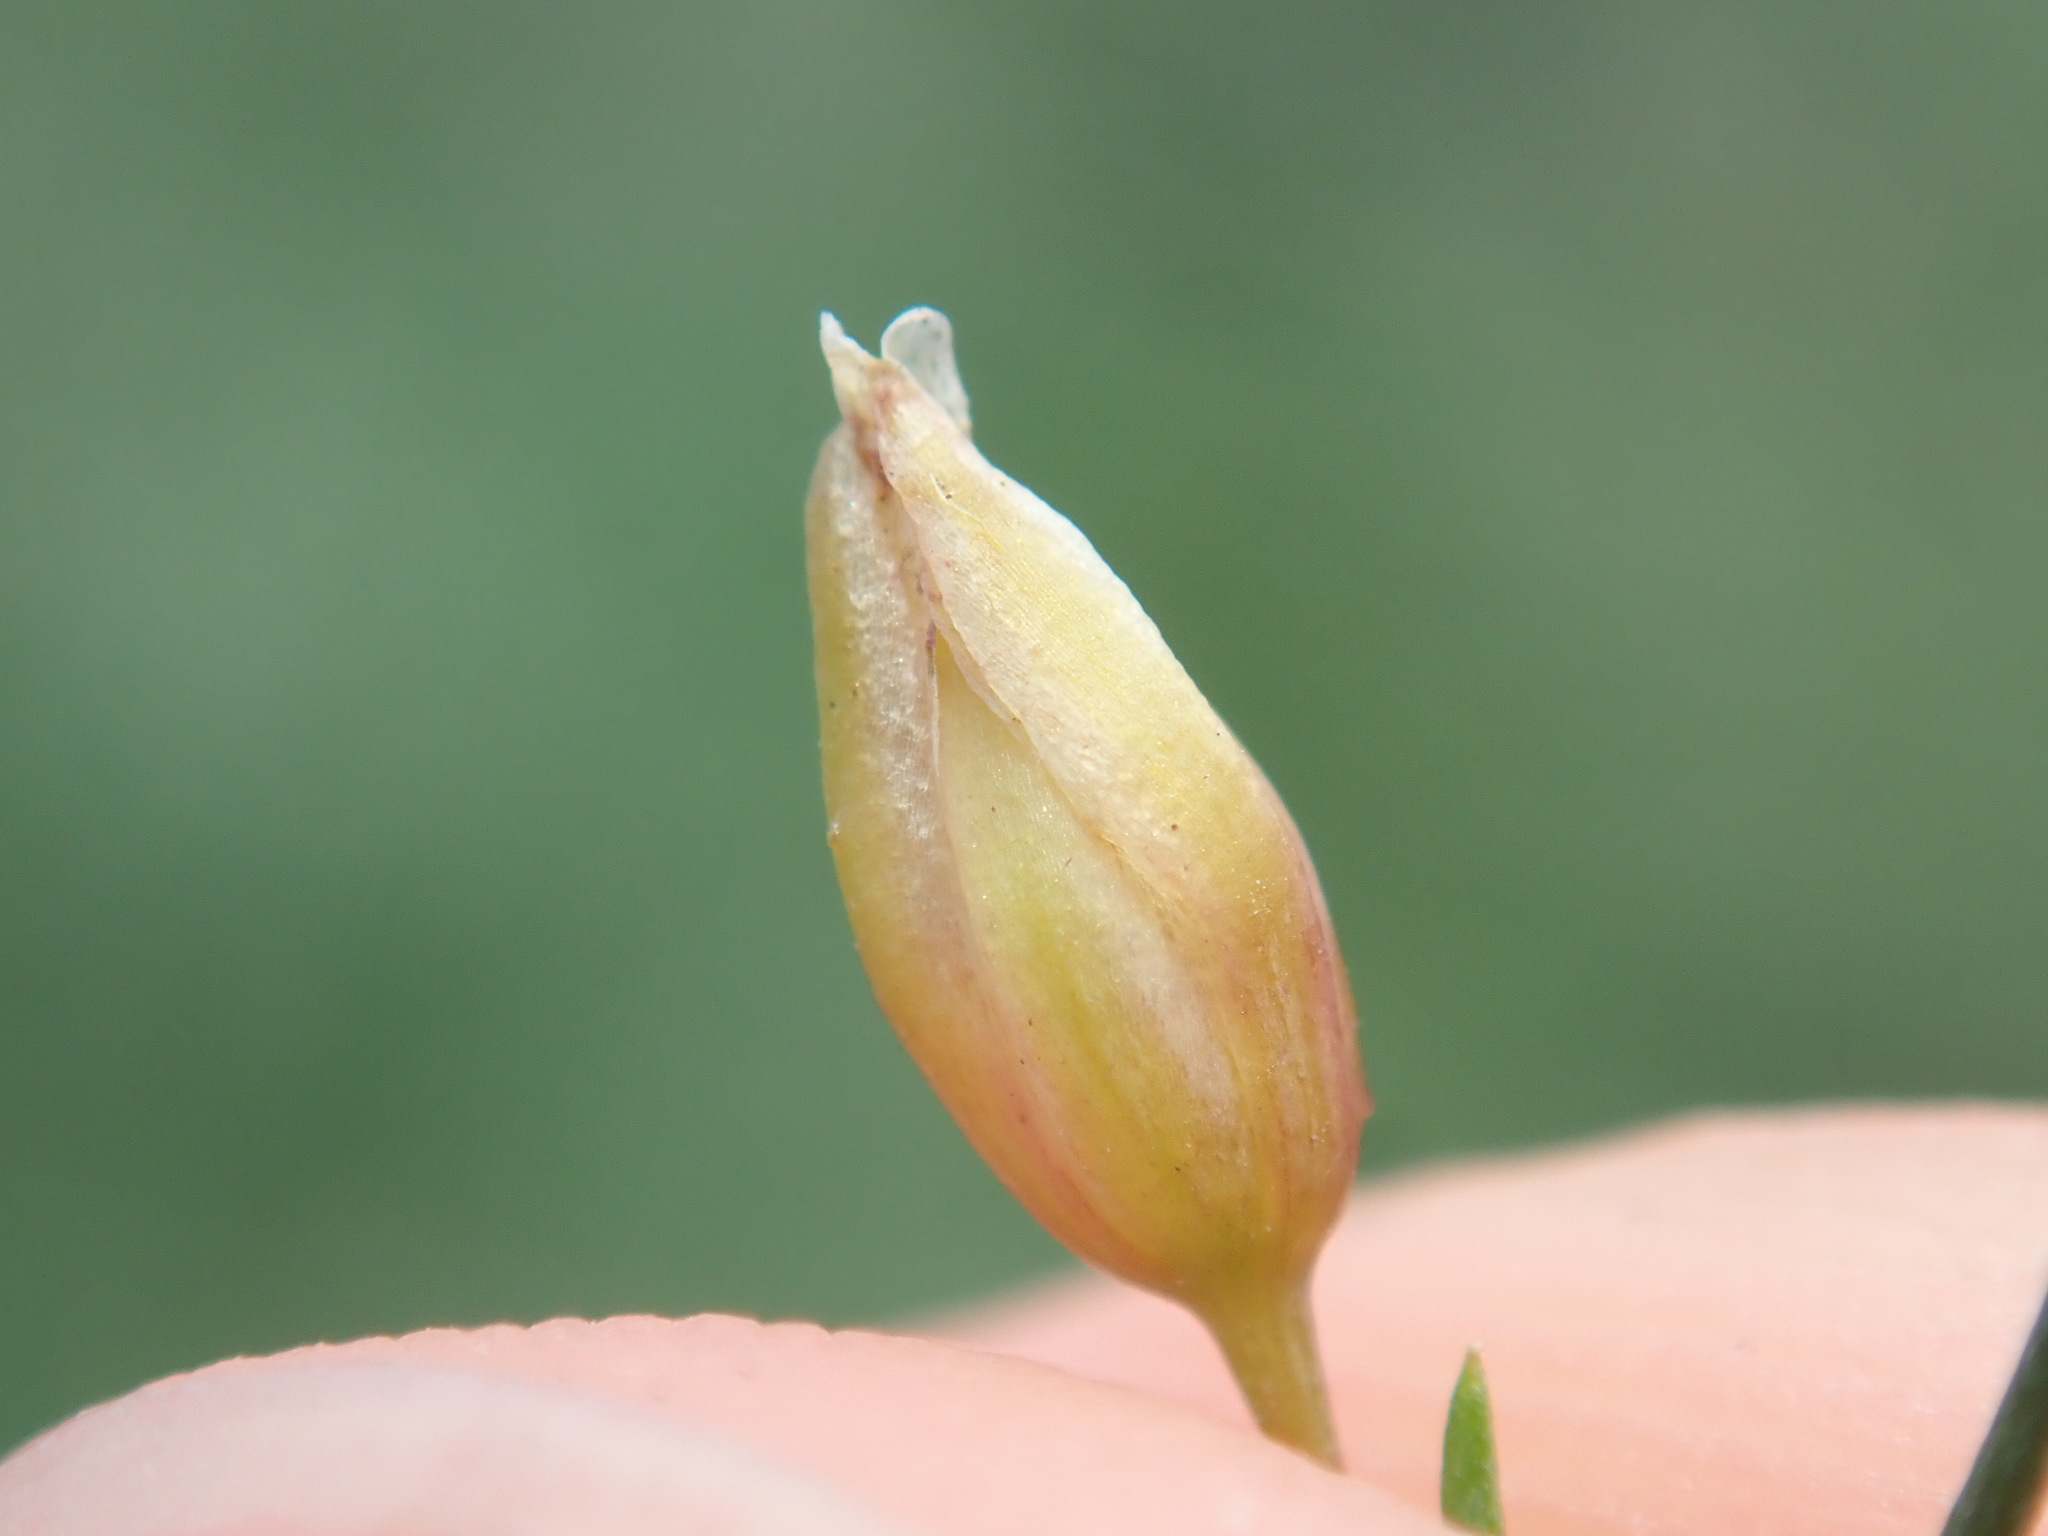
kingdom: Plantae
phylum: Tracheophyta
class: Liliopsida
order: Asparagales
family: Asparagaceae
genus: Asparagus
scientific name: Asparagus officinalis
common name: Garden asparagus
